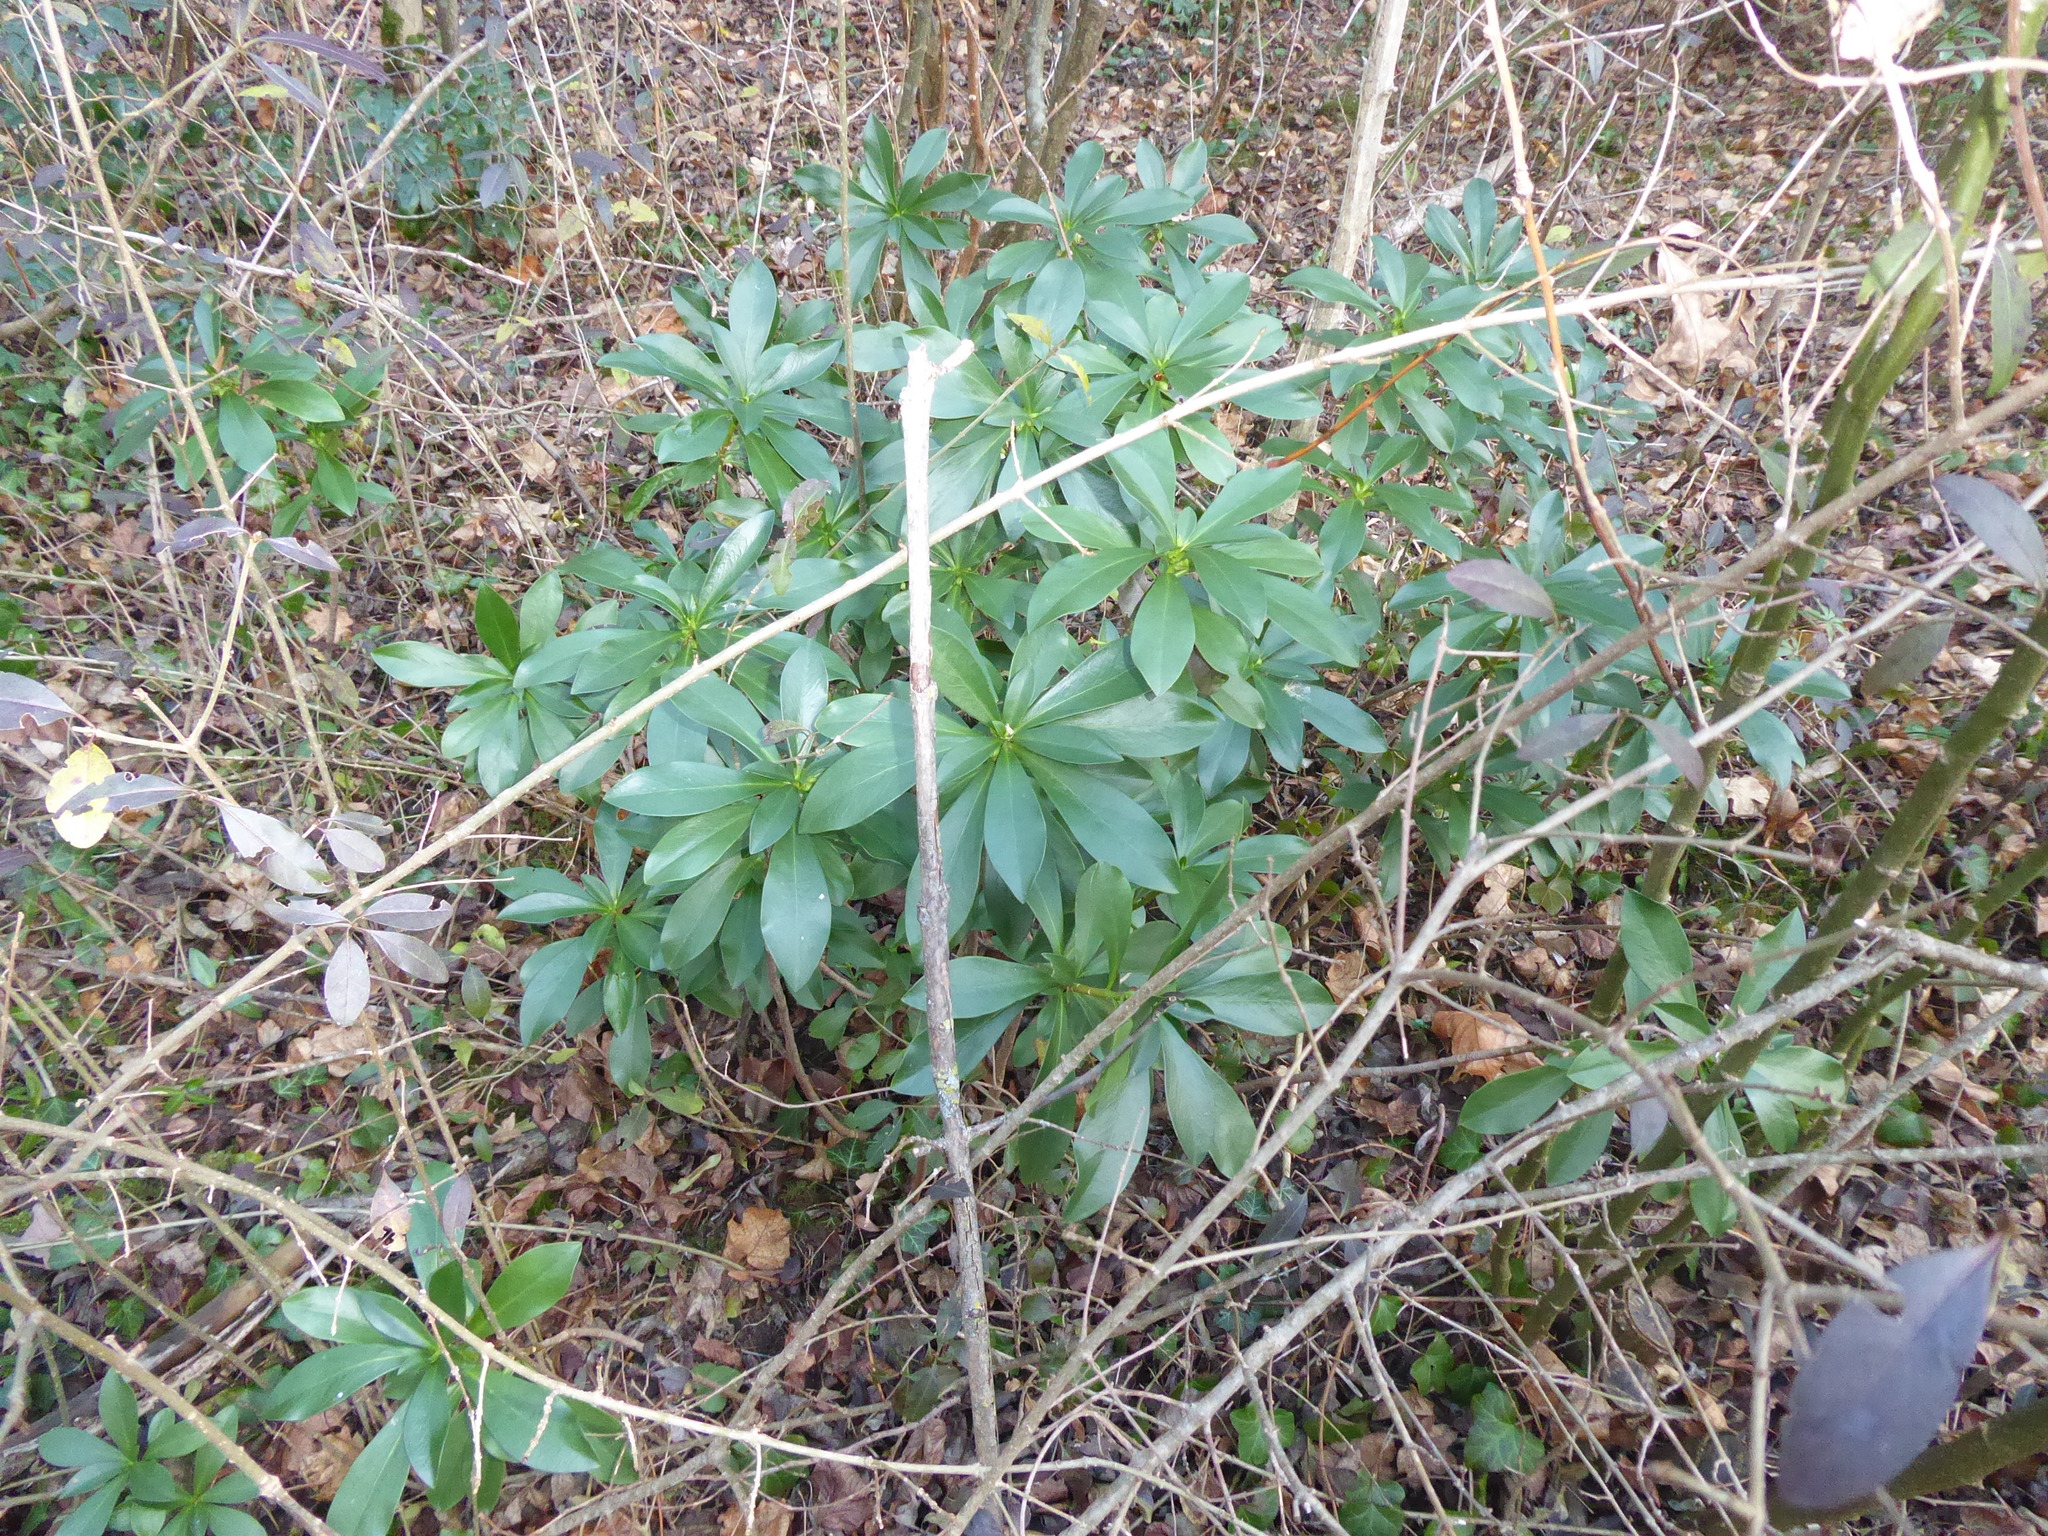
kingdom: Plantae
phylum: Tracheophyta
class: Magnoliopsida
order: Malvales
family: Thymelaeaceae
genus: Daphne
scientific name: Daphne laureola
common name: Spurge-laurel
